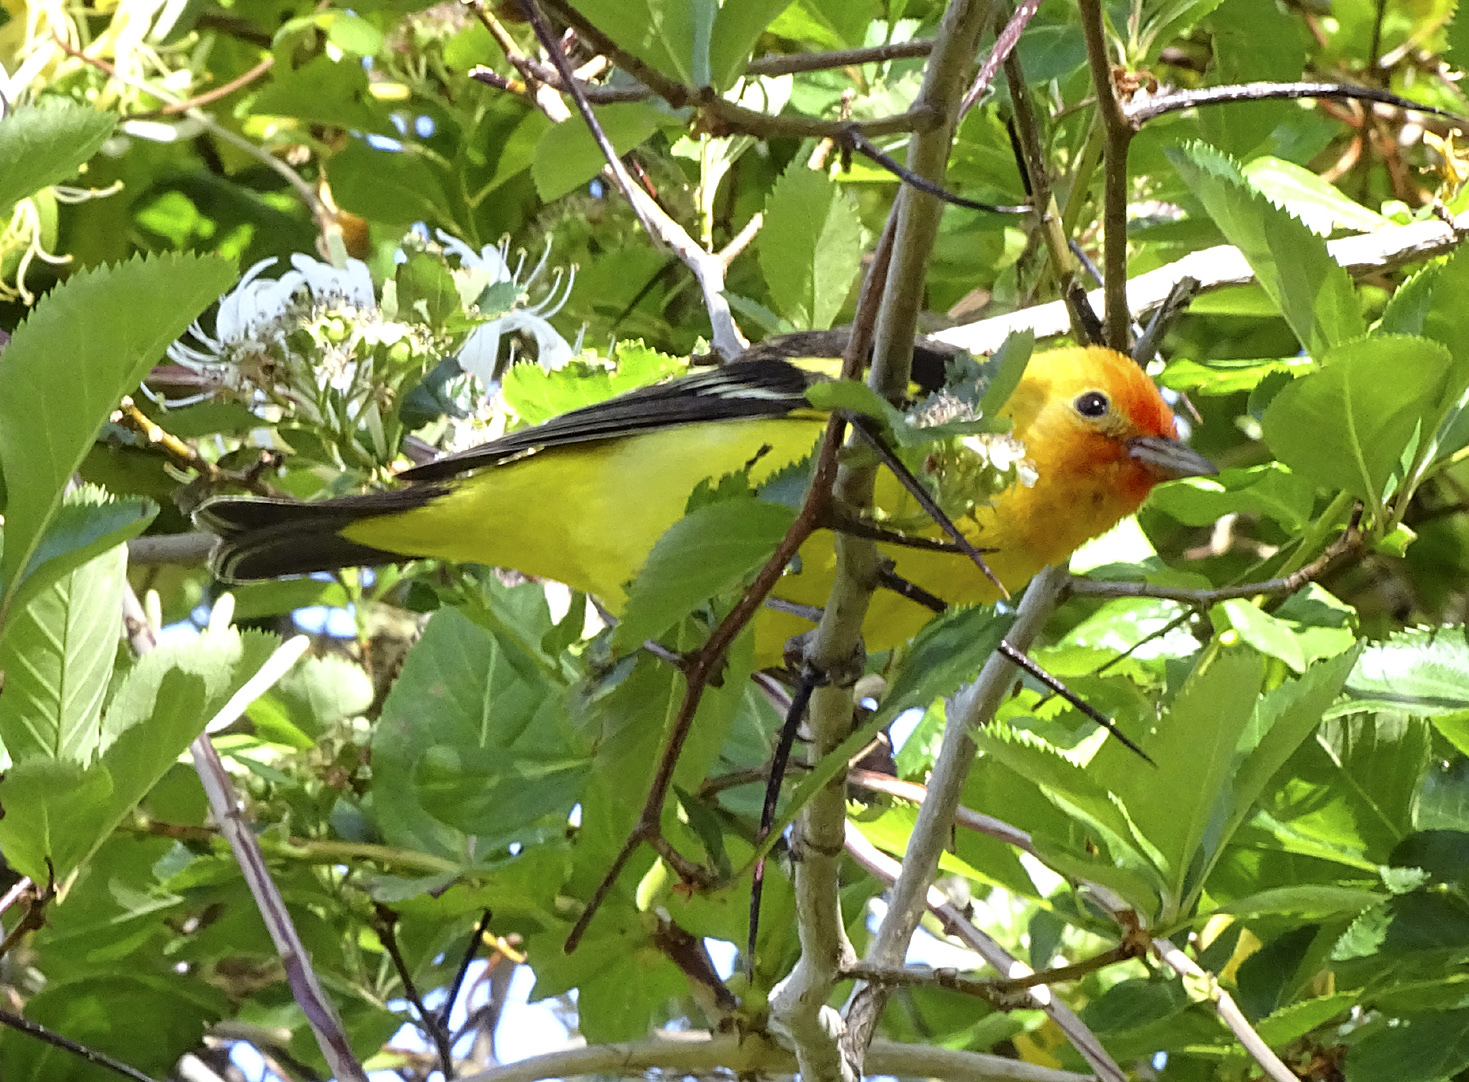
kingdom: Animalia
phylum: Chordata
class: Aves
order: Passeriformes
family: Cardinalidae
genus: Piranga
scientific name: Piranga ludoviciana
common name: Western tanager
